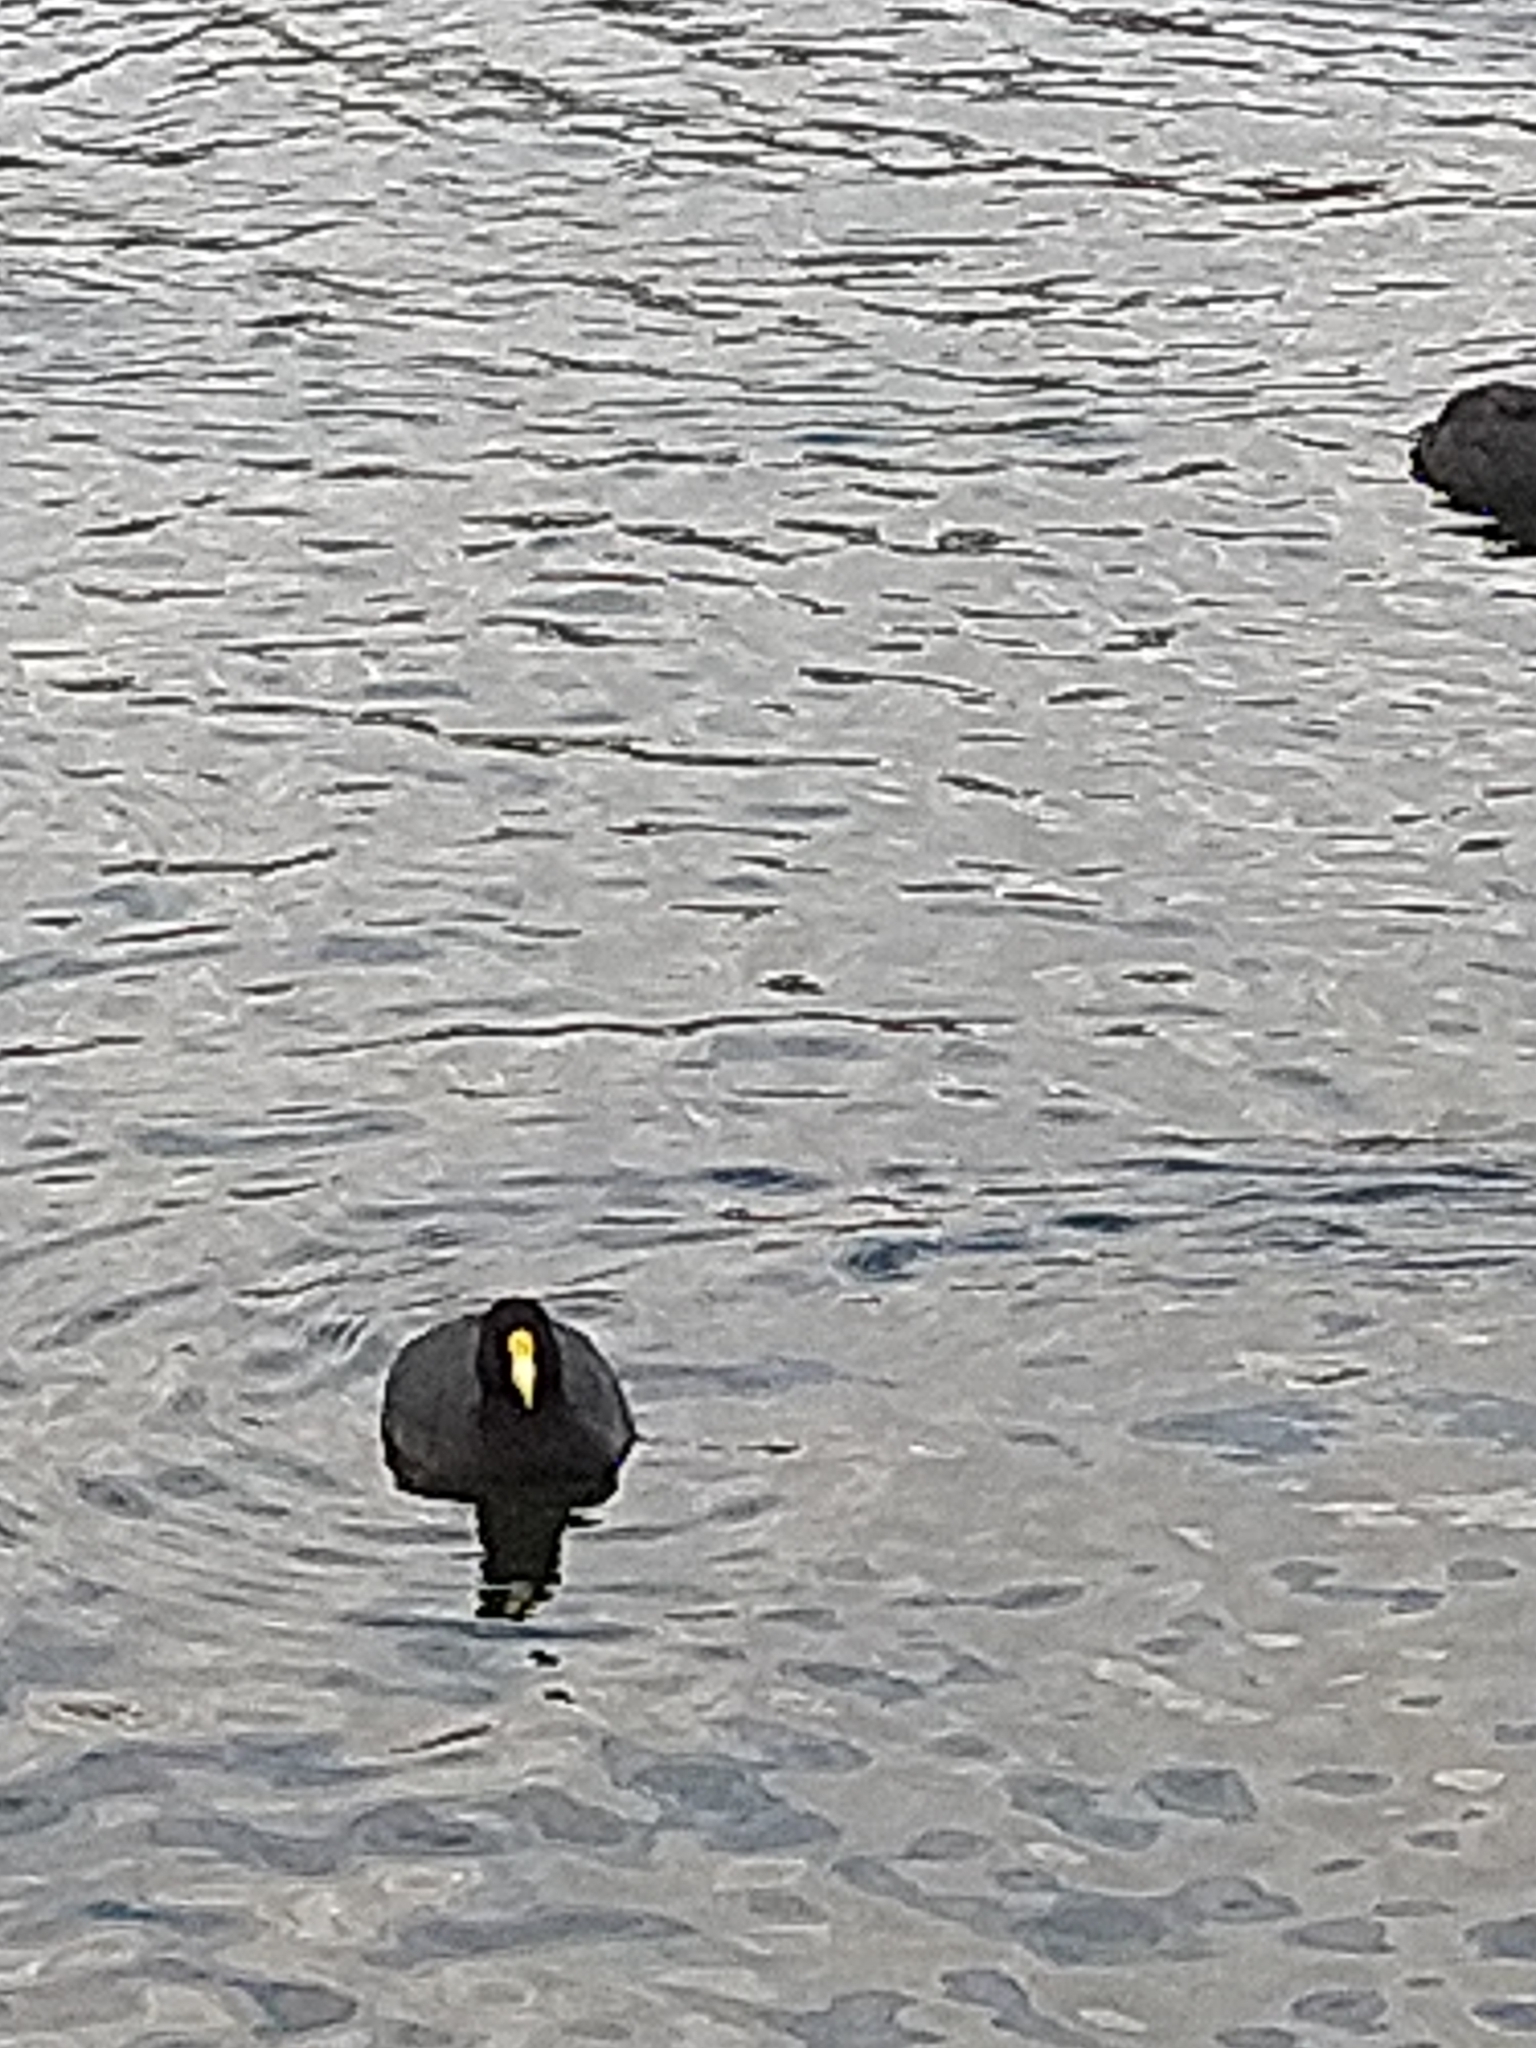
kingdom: Animalia
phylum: Chordata
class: Aves
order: Gruiformes
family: Rallidae
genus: Fulica
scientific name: Fulica leucoptera
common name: White-winged coot
